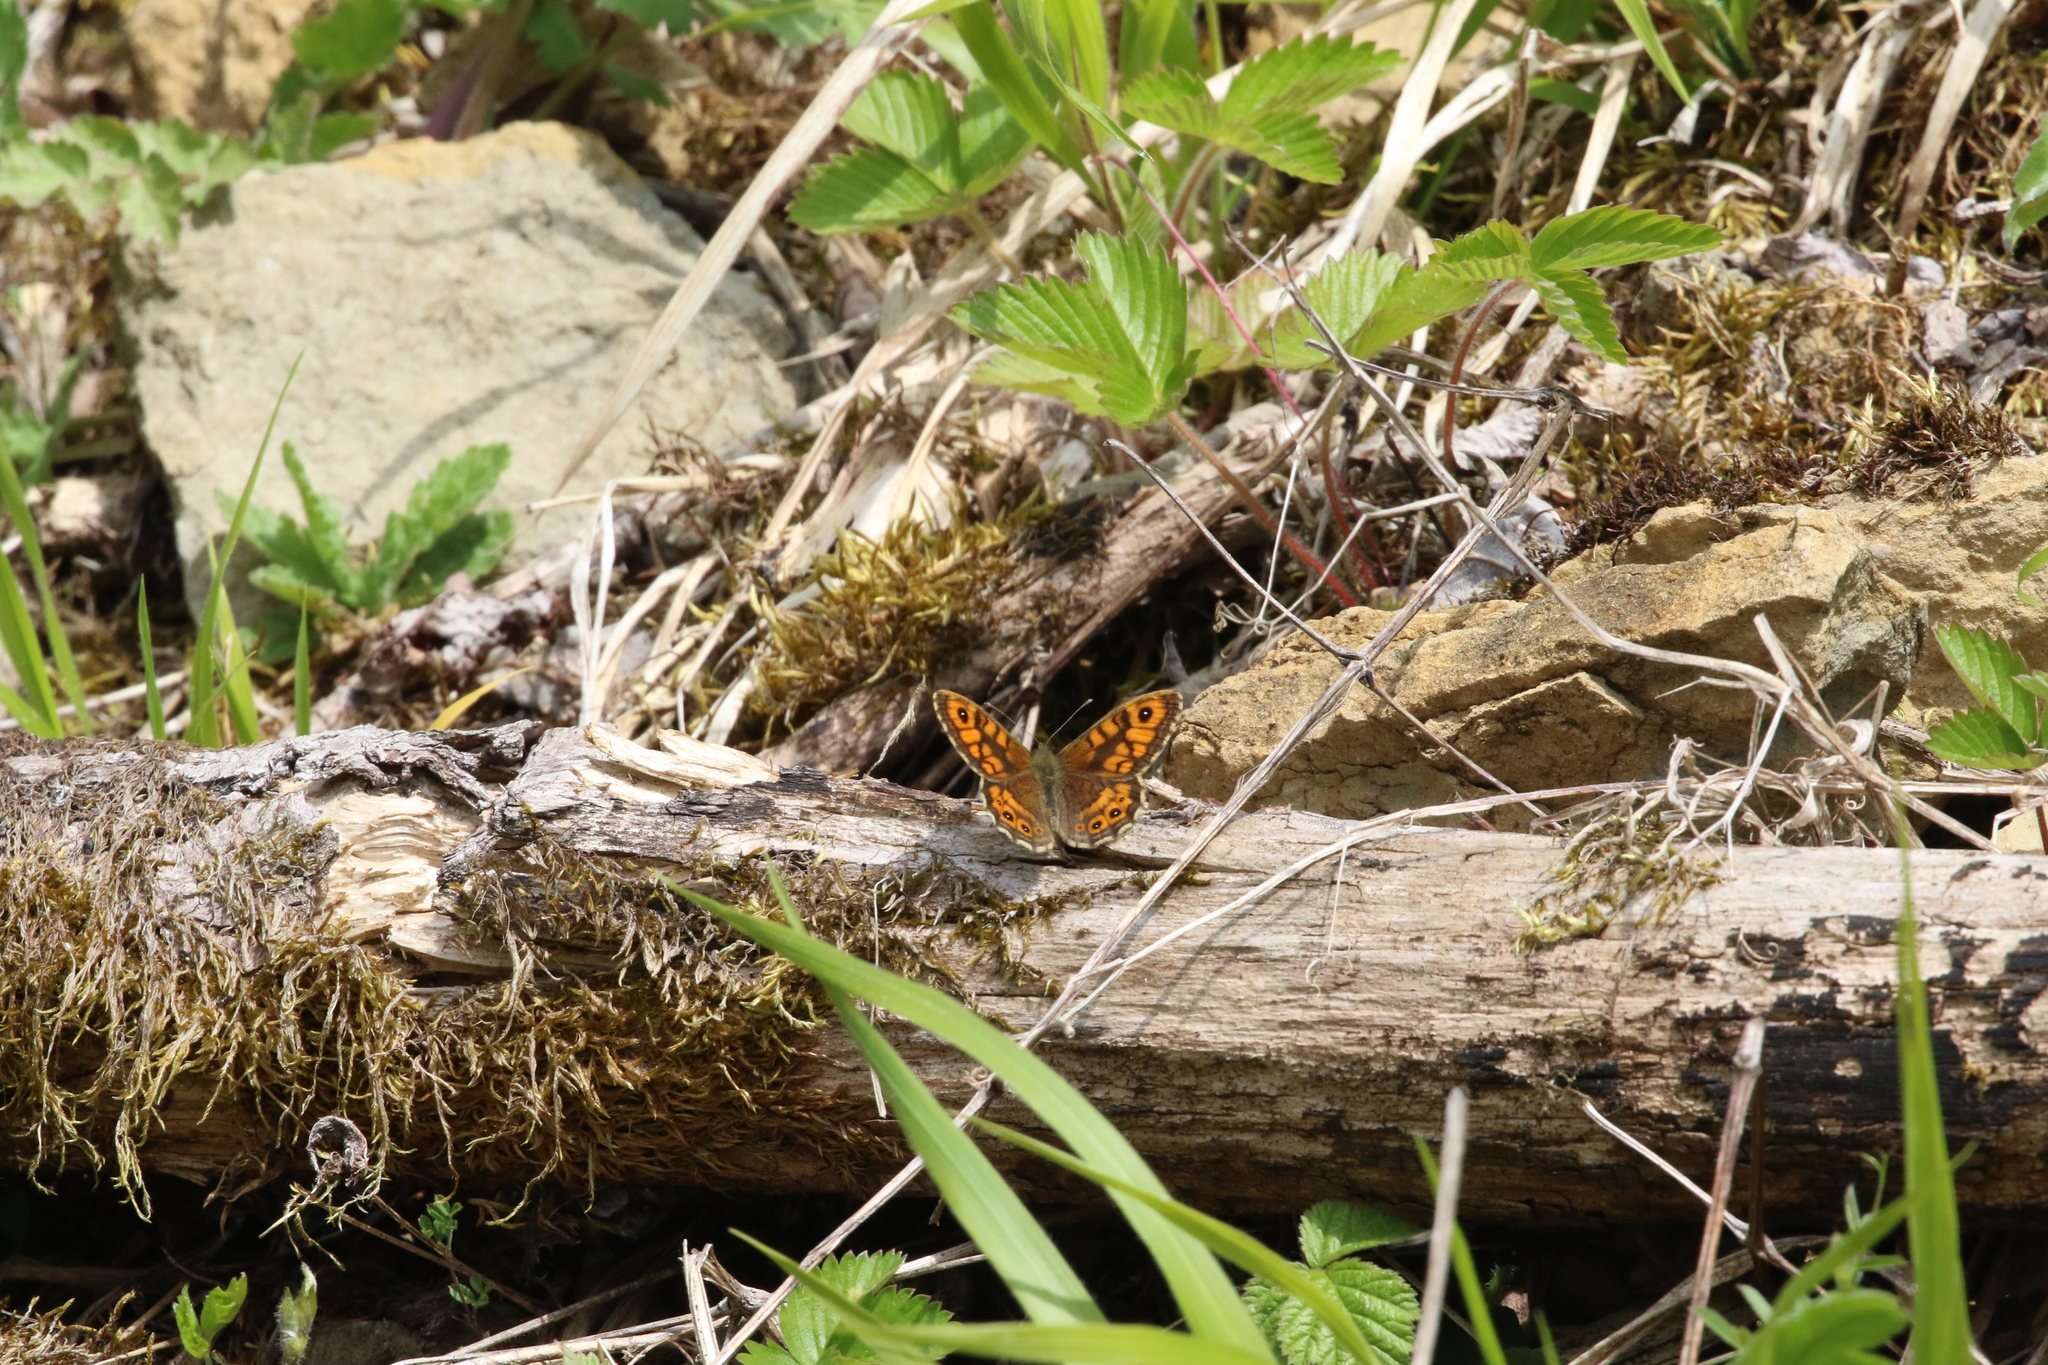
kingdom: Animalia
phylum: Arthropoda
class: Insecta
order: Lepidoptera
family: Nymphalidae
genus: Pararge
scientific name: Pararge Lasiommata megera
